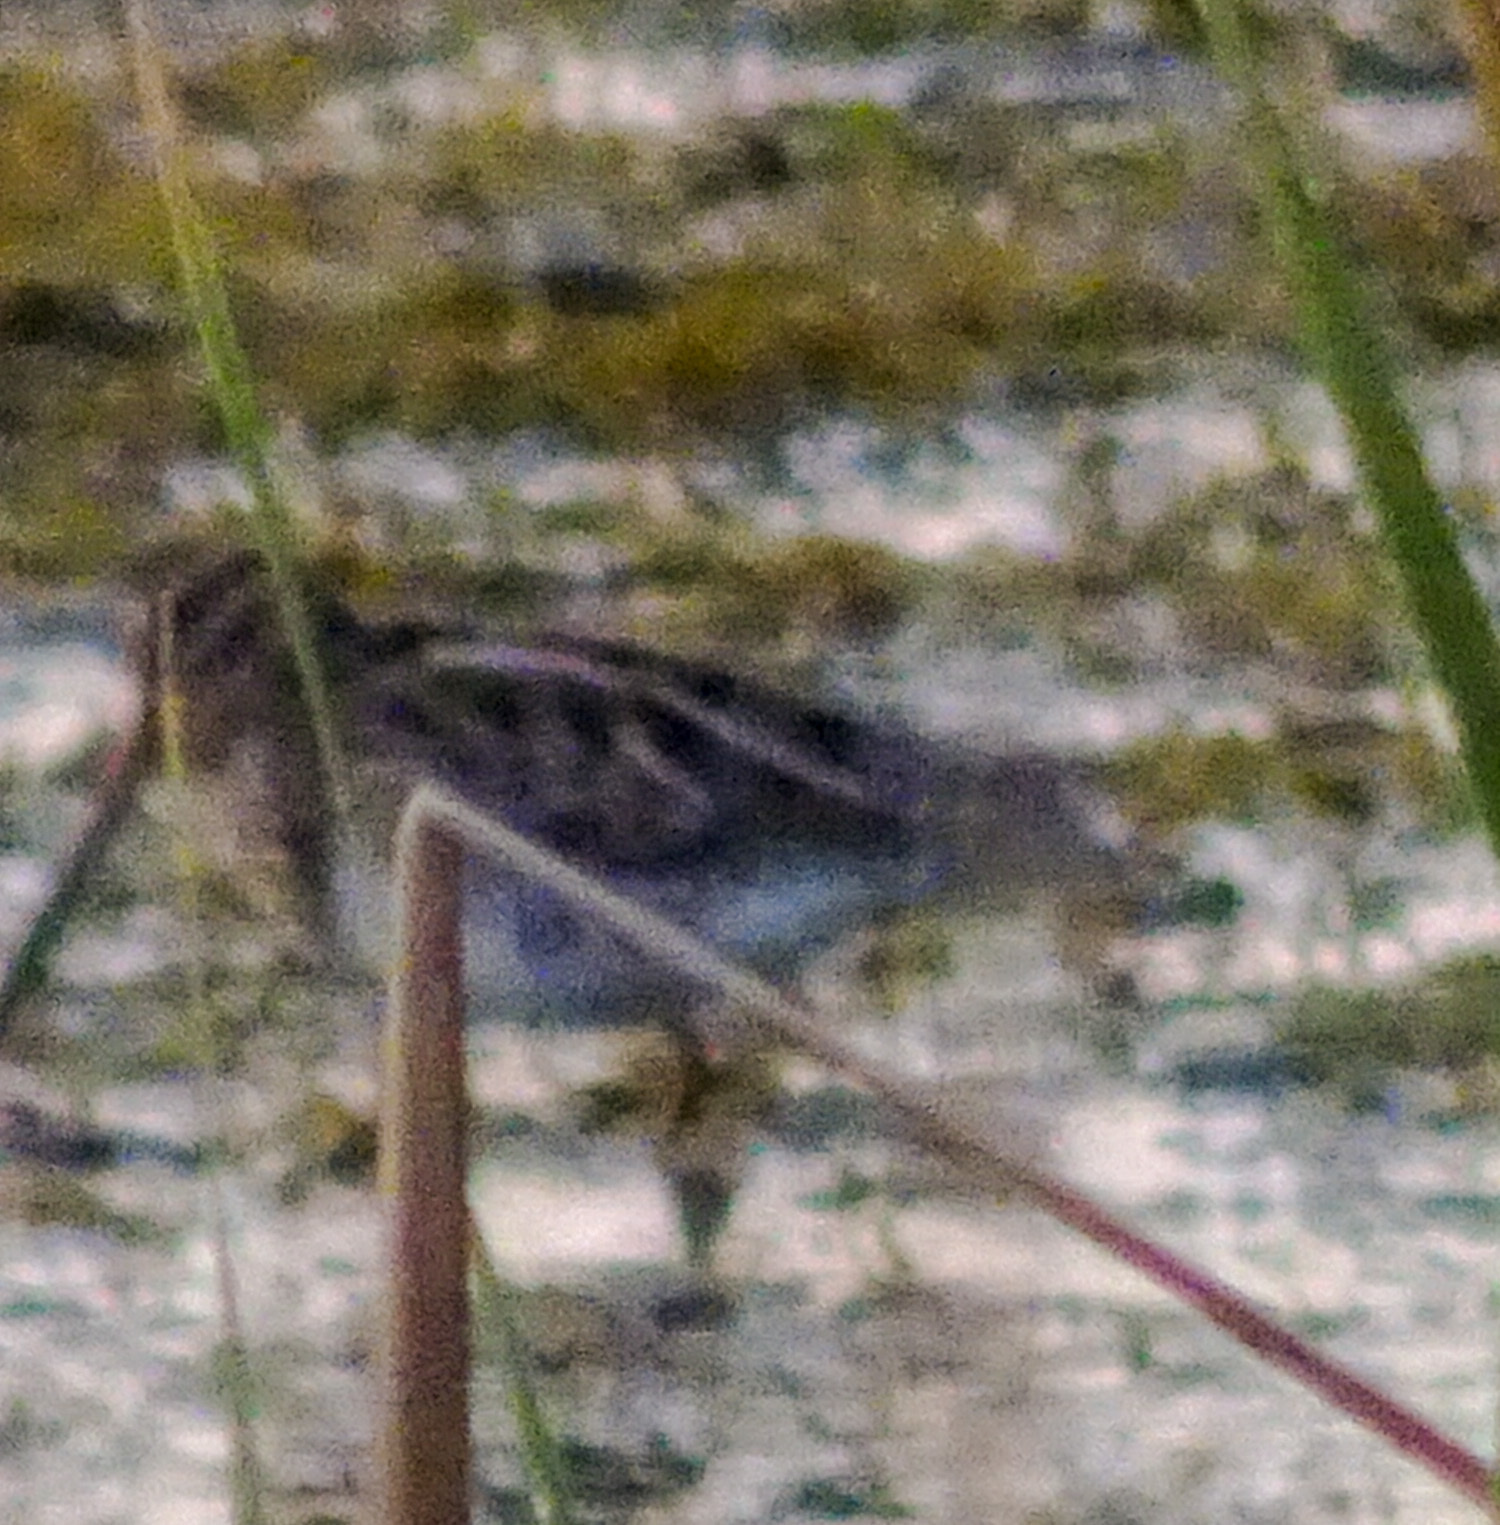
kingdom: Animalia
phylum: Chordata
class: Aves
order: Charadriiformes
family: Scolopacidae
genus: Gallinago
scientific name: Gallinago delicata
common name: Wilson's snipe
